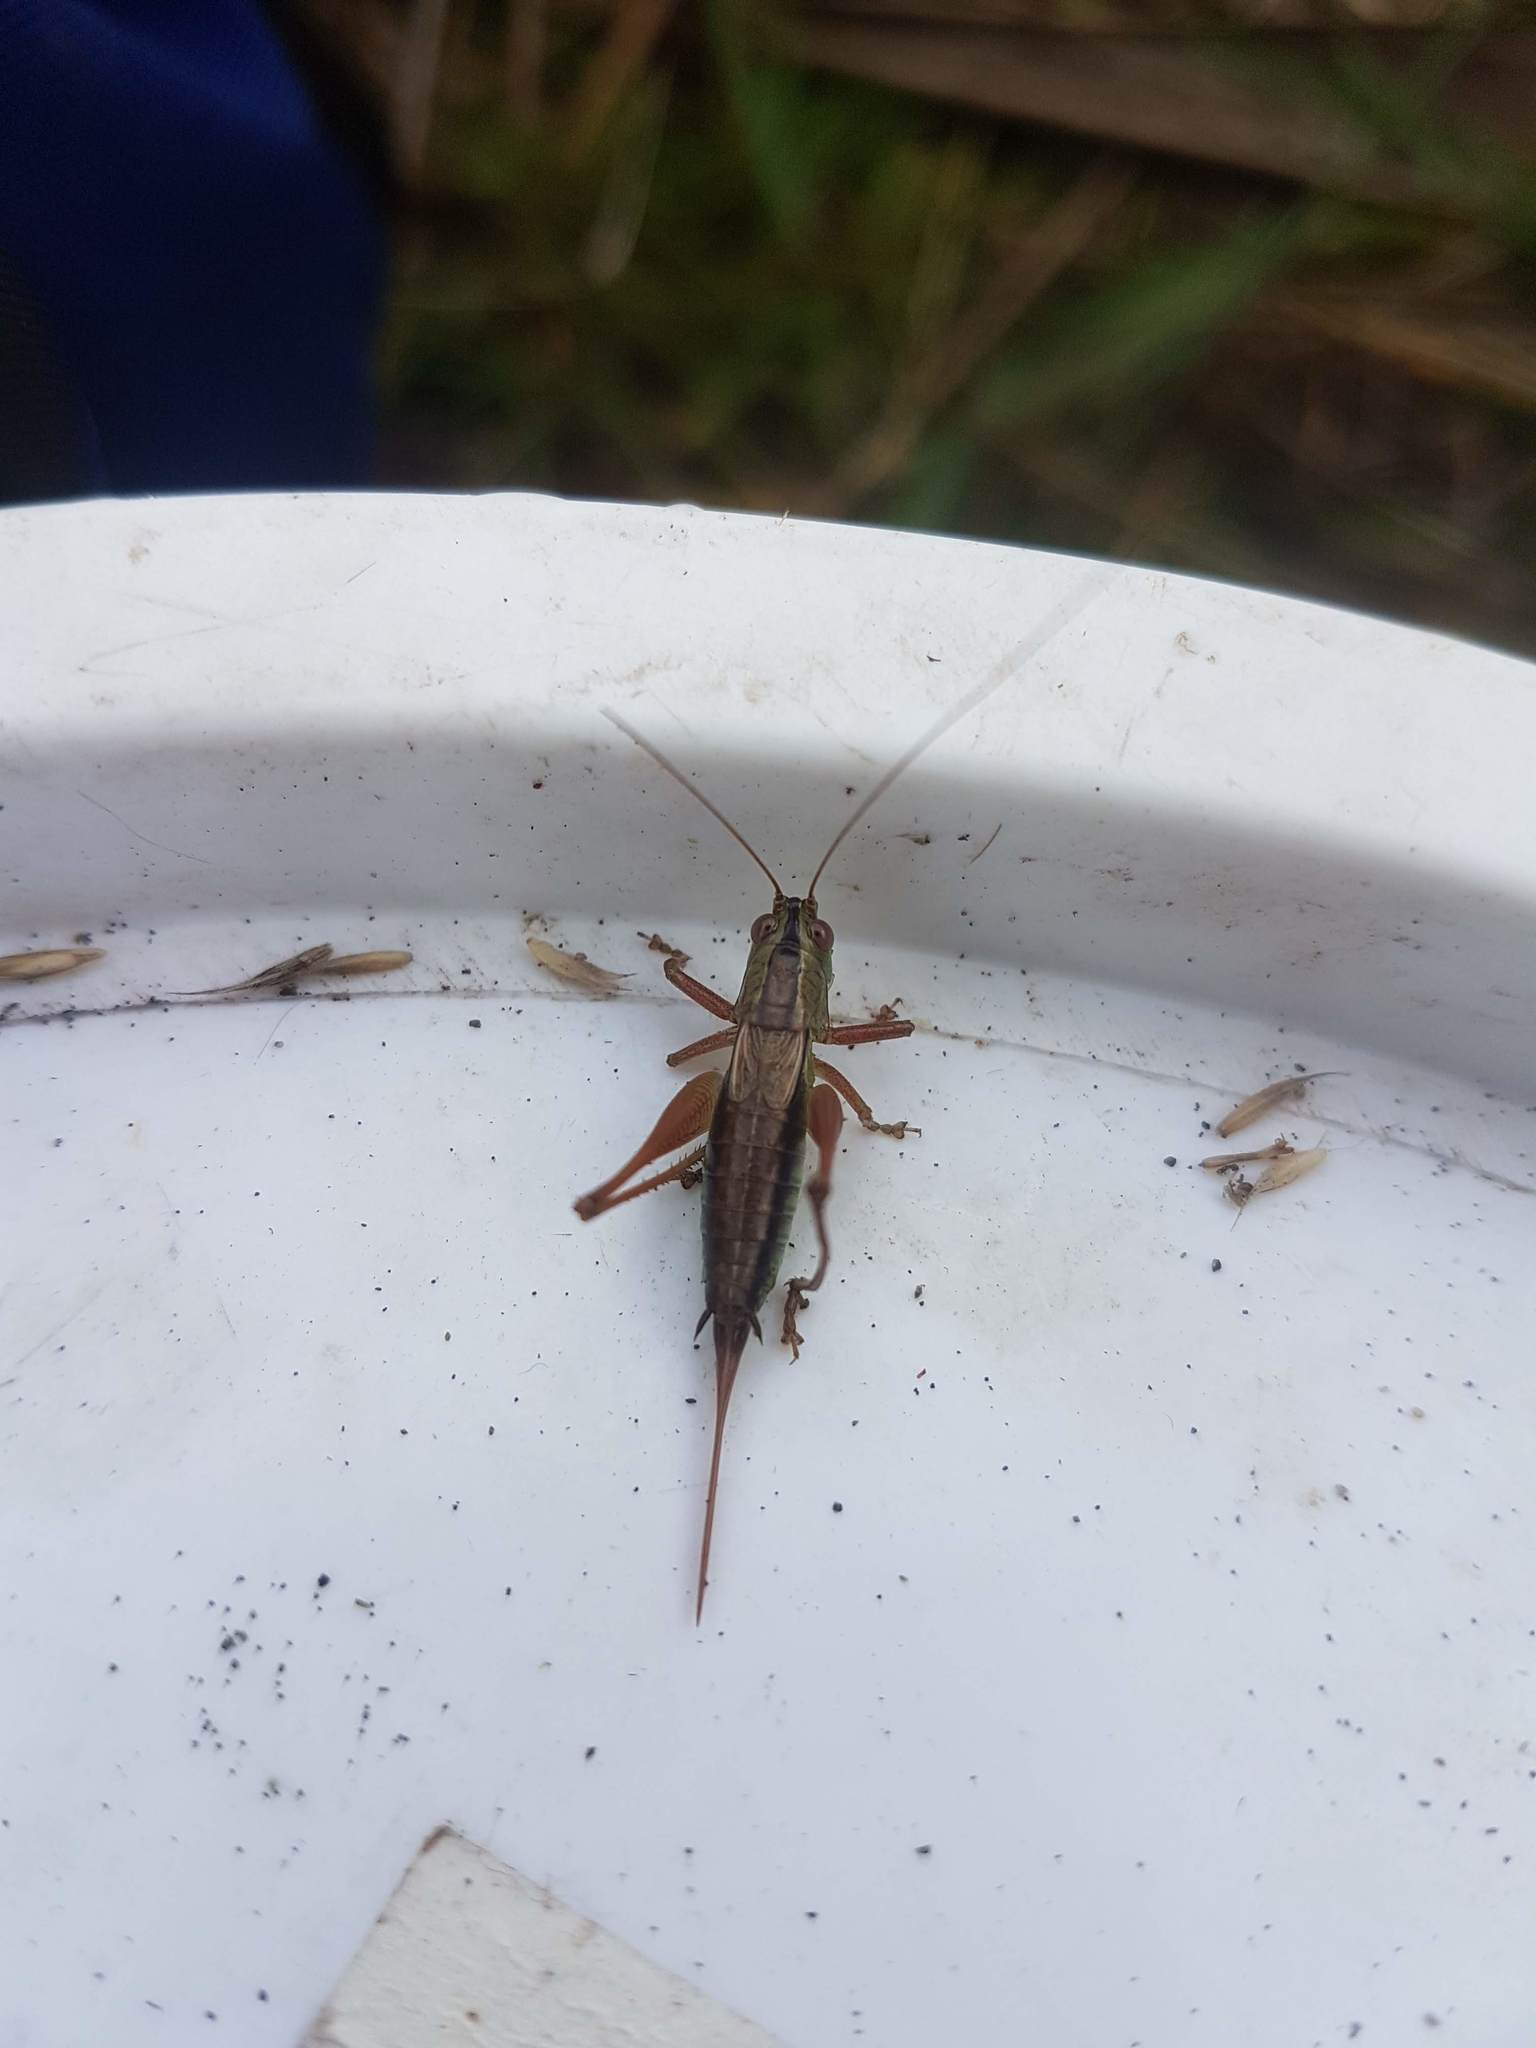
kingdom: Animalia
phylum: Arthropoda
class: Insecta
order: Orthoptera
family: Tettigoniidae
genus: Conocephalus
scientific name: Conocephalus semivittatus
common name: Blackish meadow katydid
